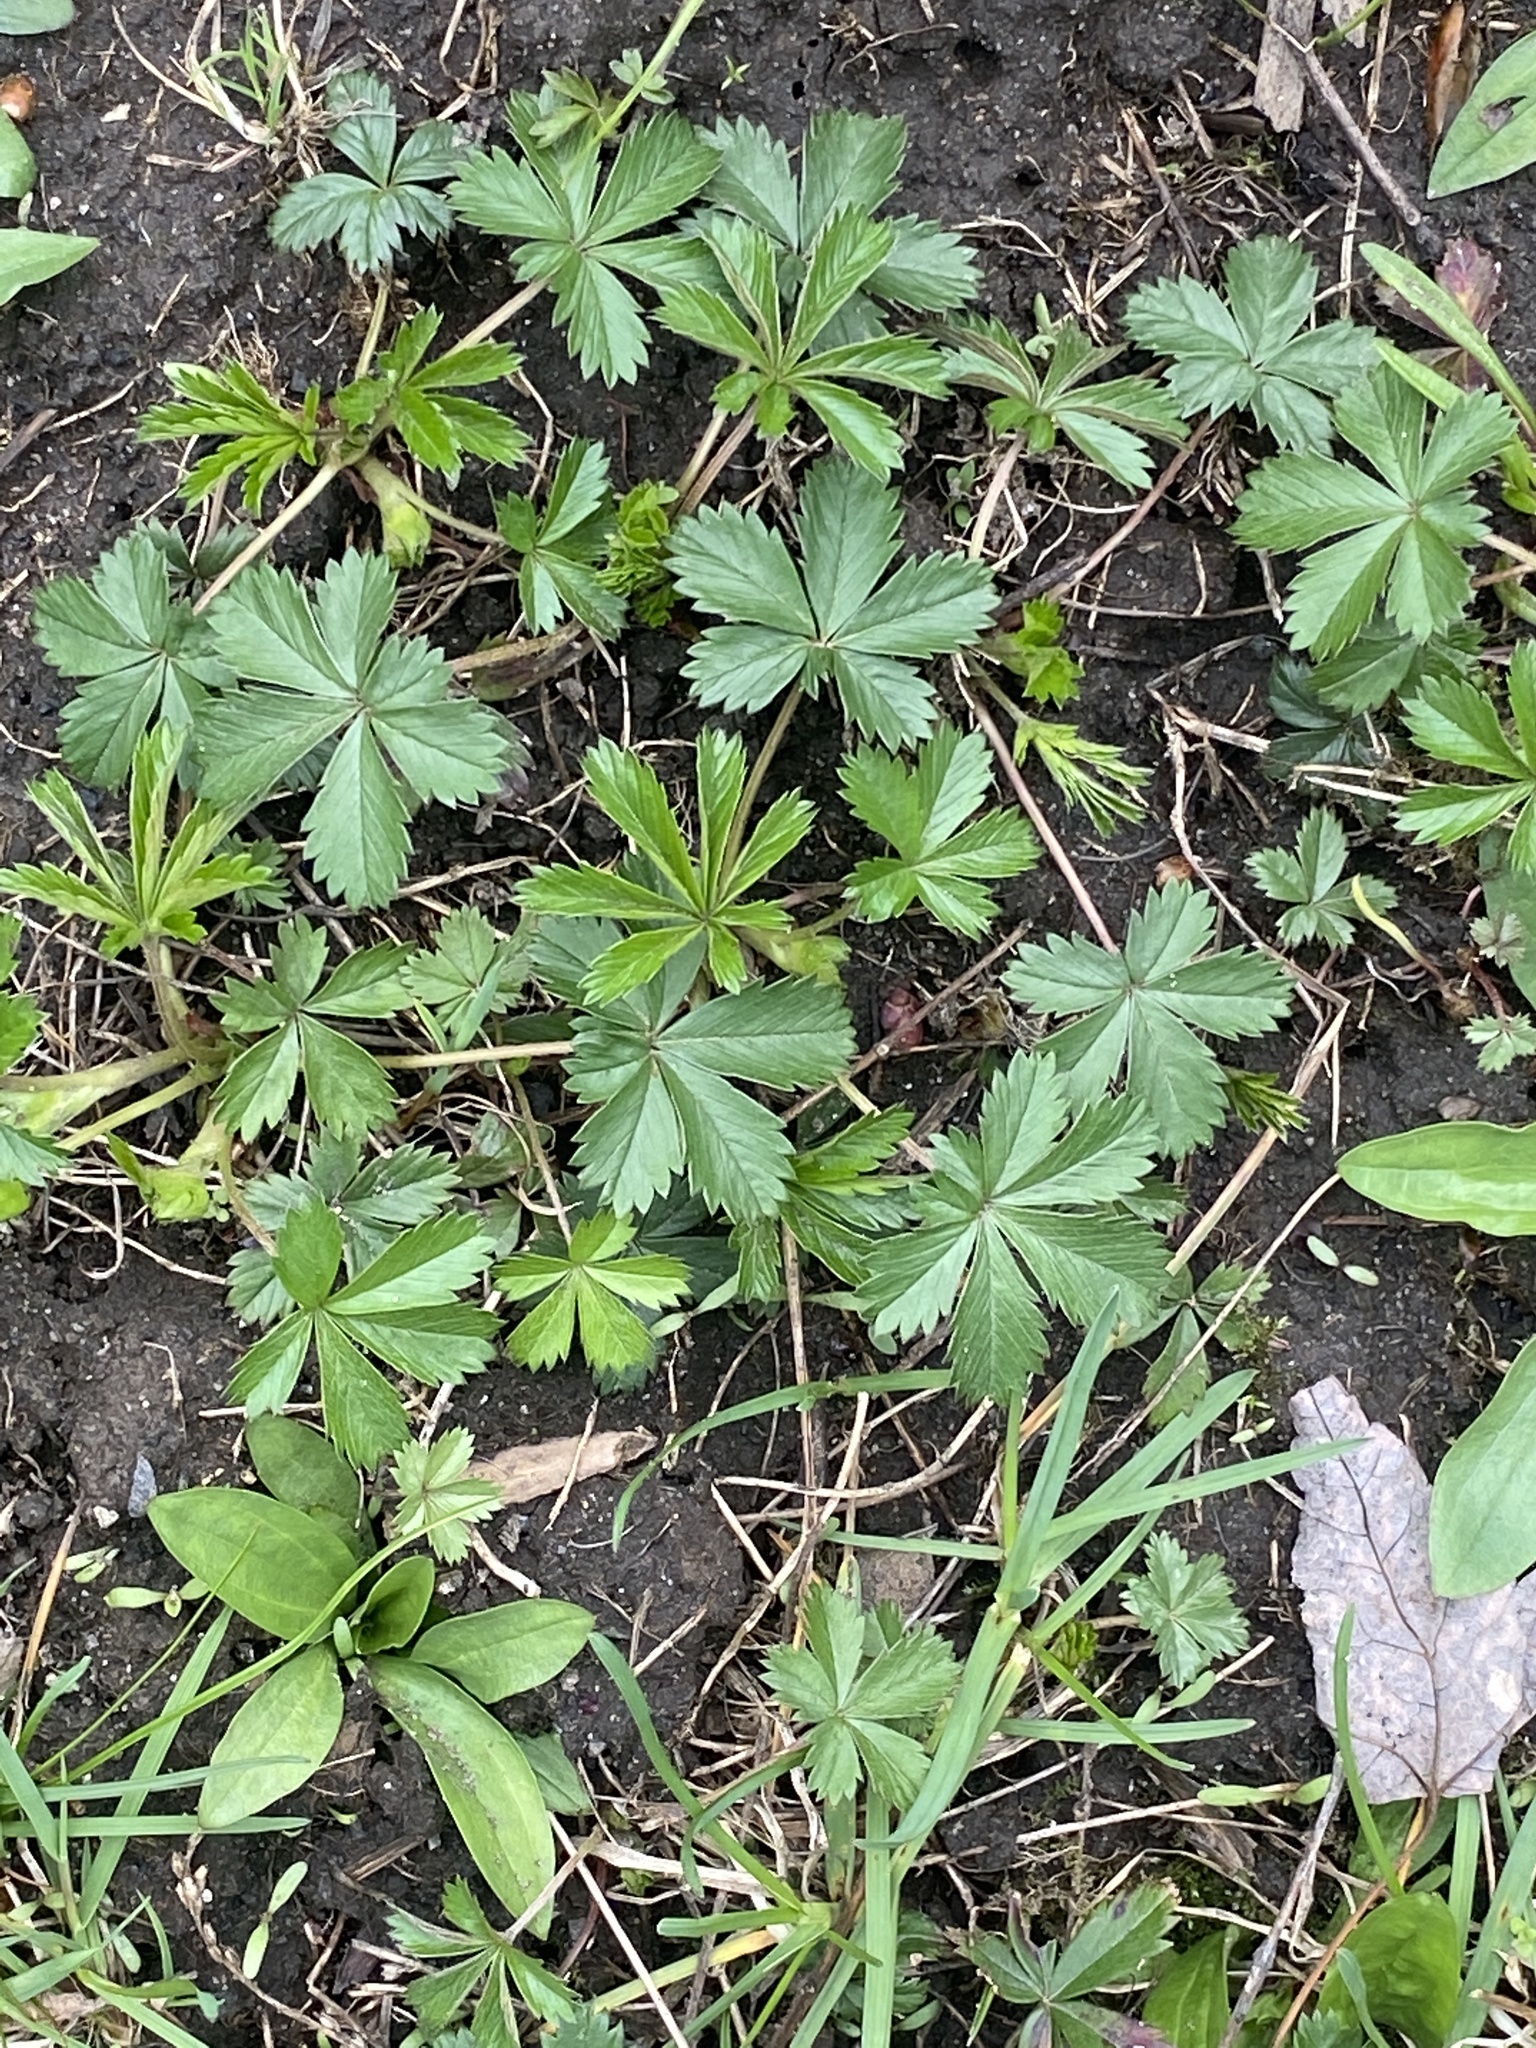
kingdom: Plantae
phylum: Tracheophyta
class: Magnoliopsida
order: Rosales
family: Rosaceae
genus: Potentilla
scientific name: Potentilla canadensis
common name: Canada cinquefoil
